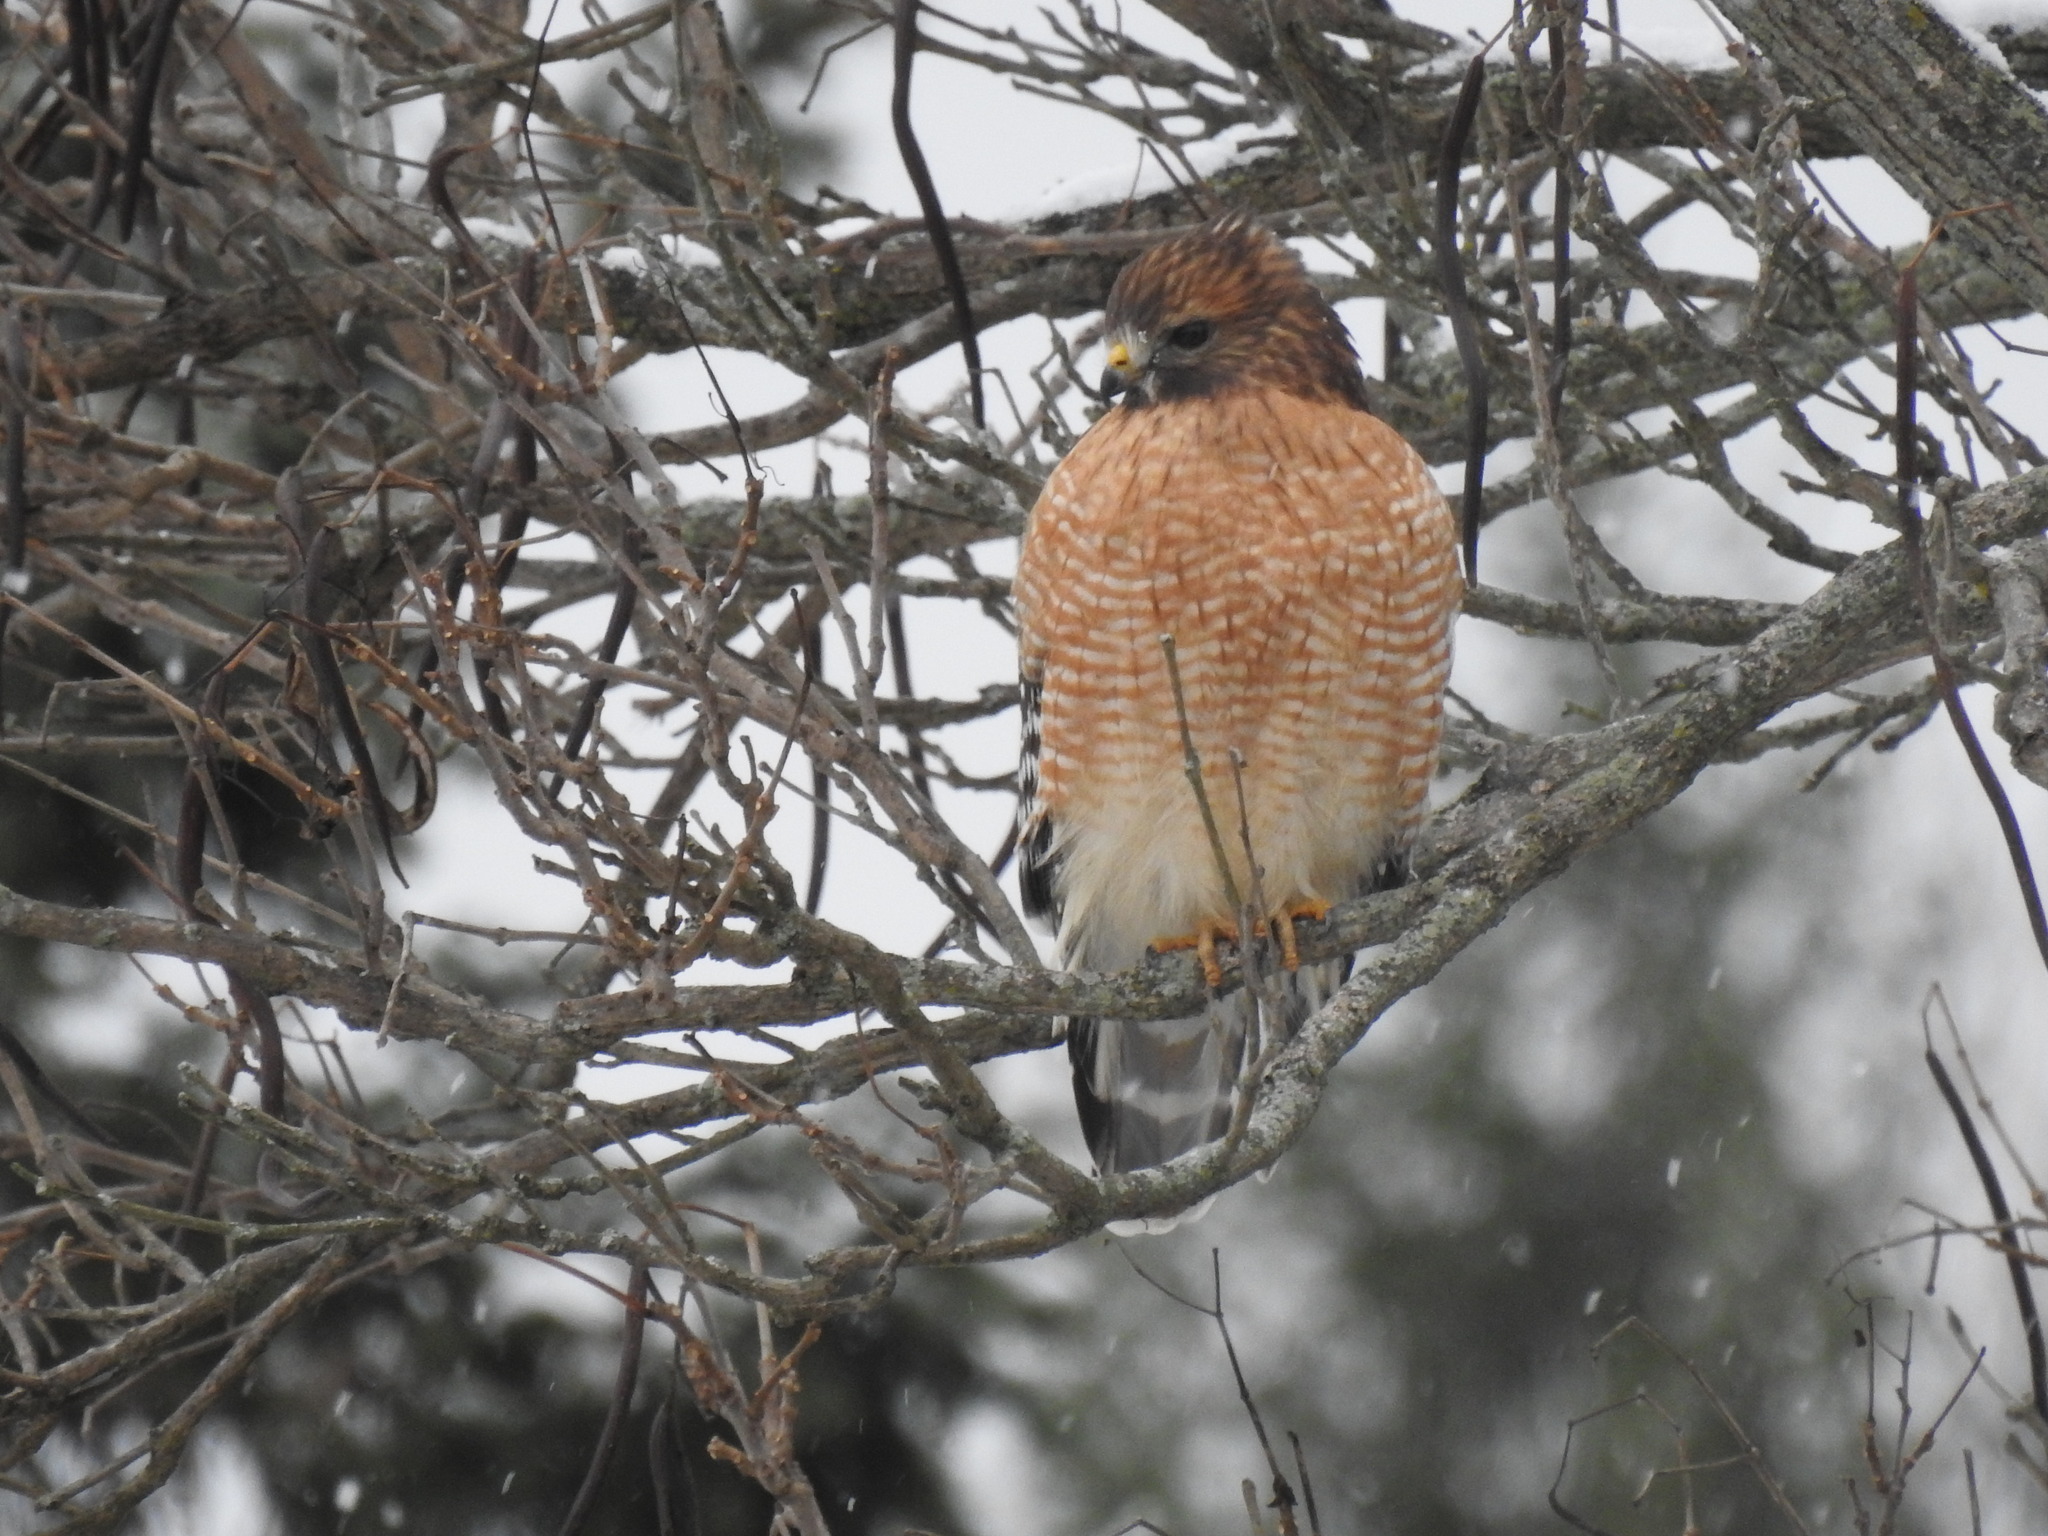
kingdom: Animalia
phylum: Chordata
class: Aves
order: Accipitriformes
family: Accipitridae
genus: Buteo
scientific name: Buteo lineatus
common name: Red-shouldered hawk
